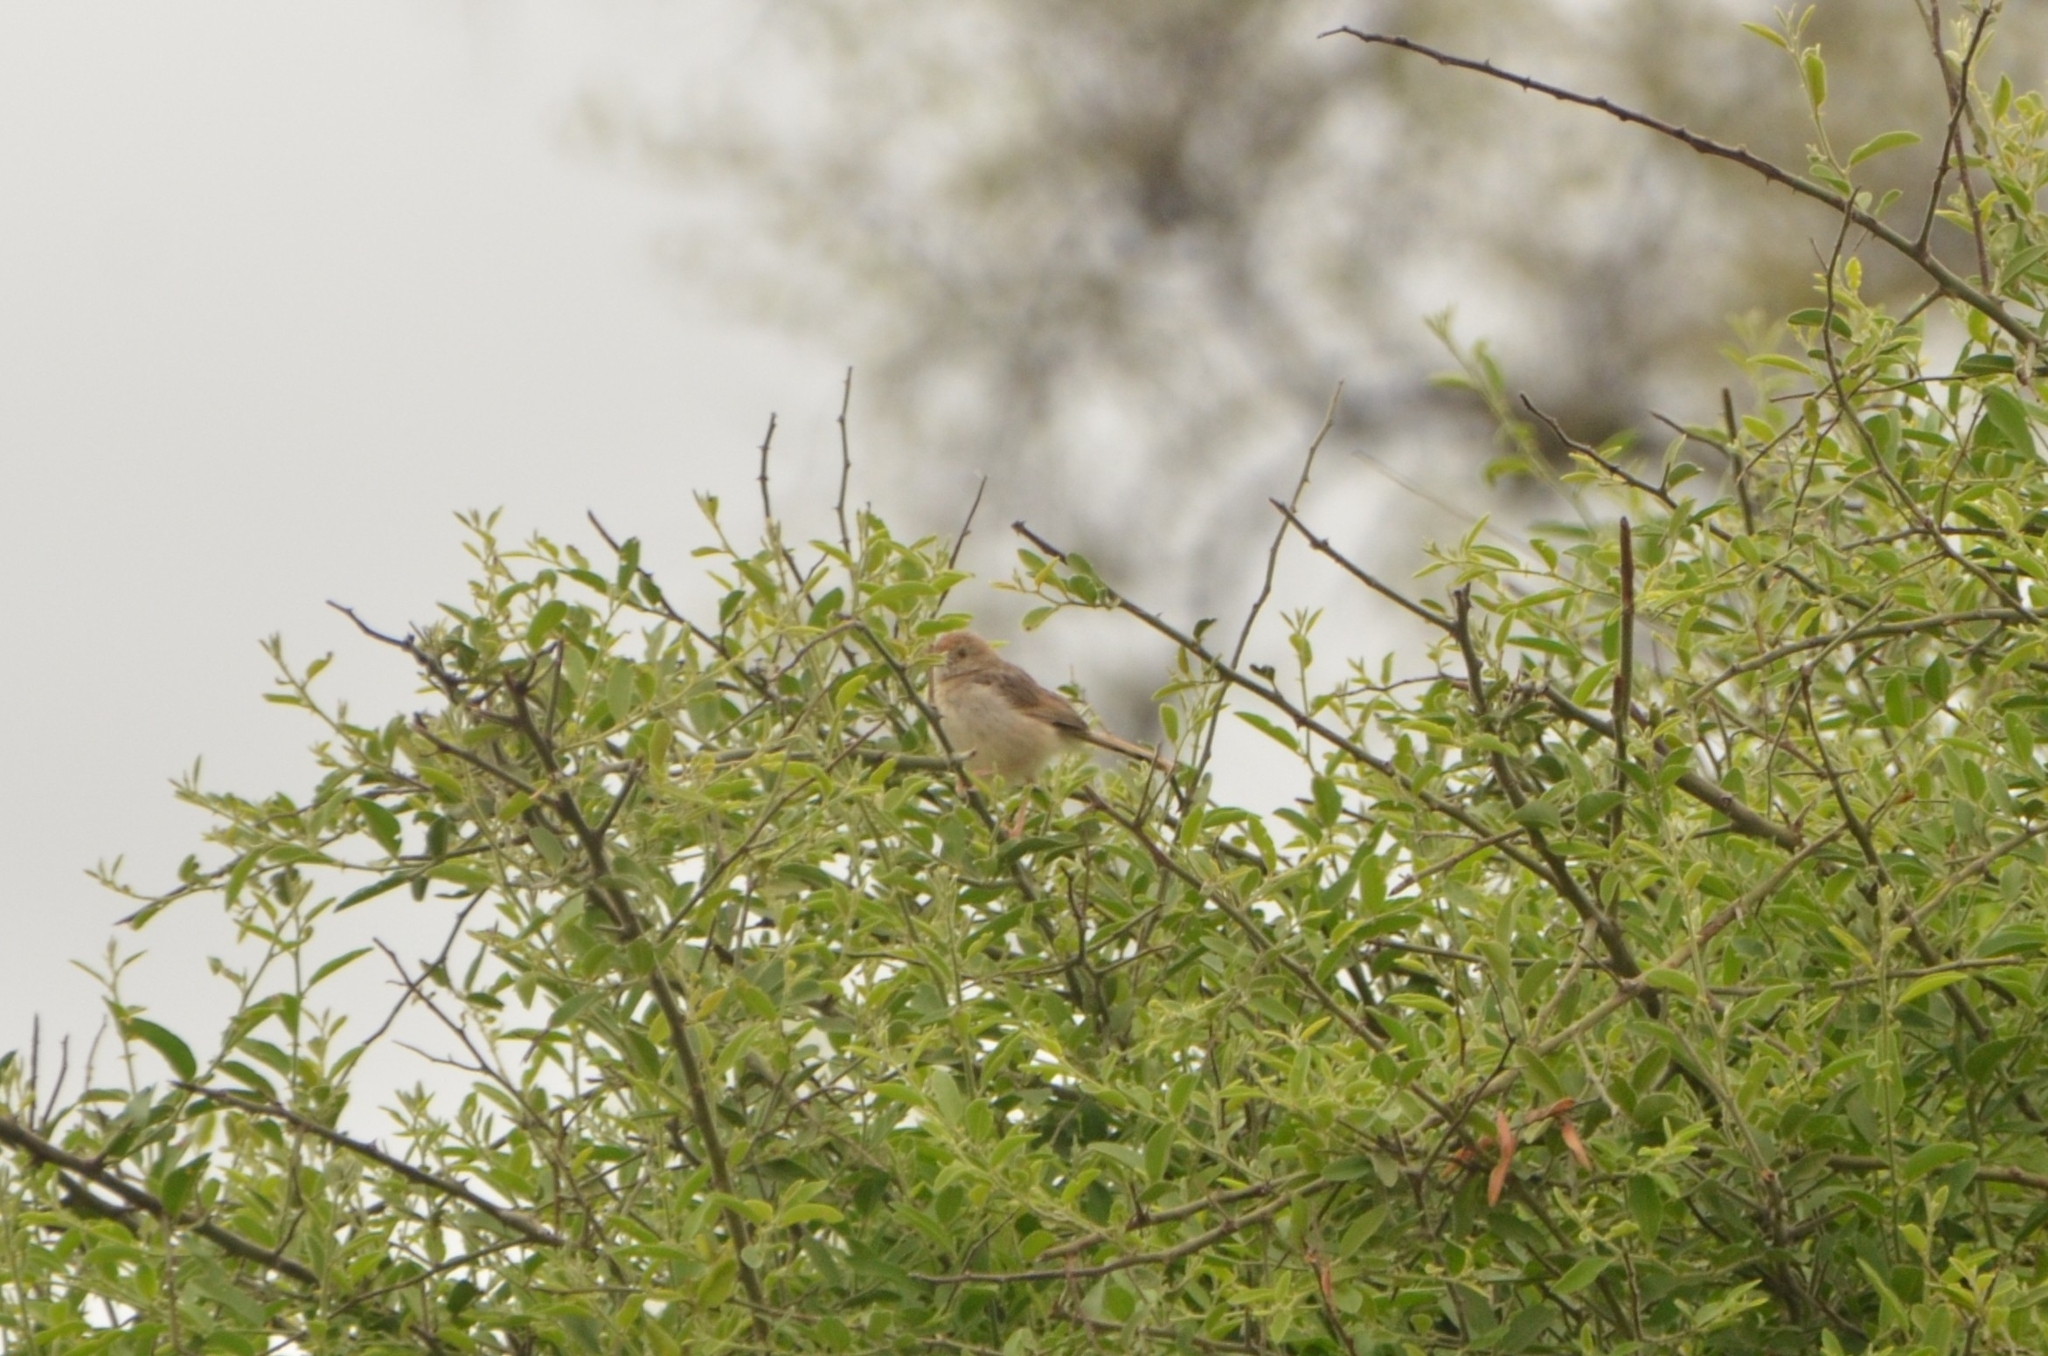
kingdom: Animalia
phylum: Chordata
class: Aves
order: Passeriformes
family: Cisticolidae
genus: Cisticola
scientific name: Cisticola chiniana
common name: Rattling cisticola
